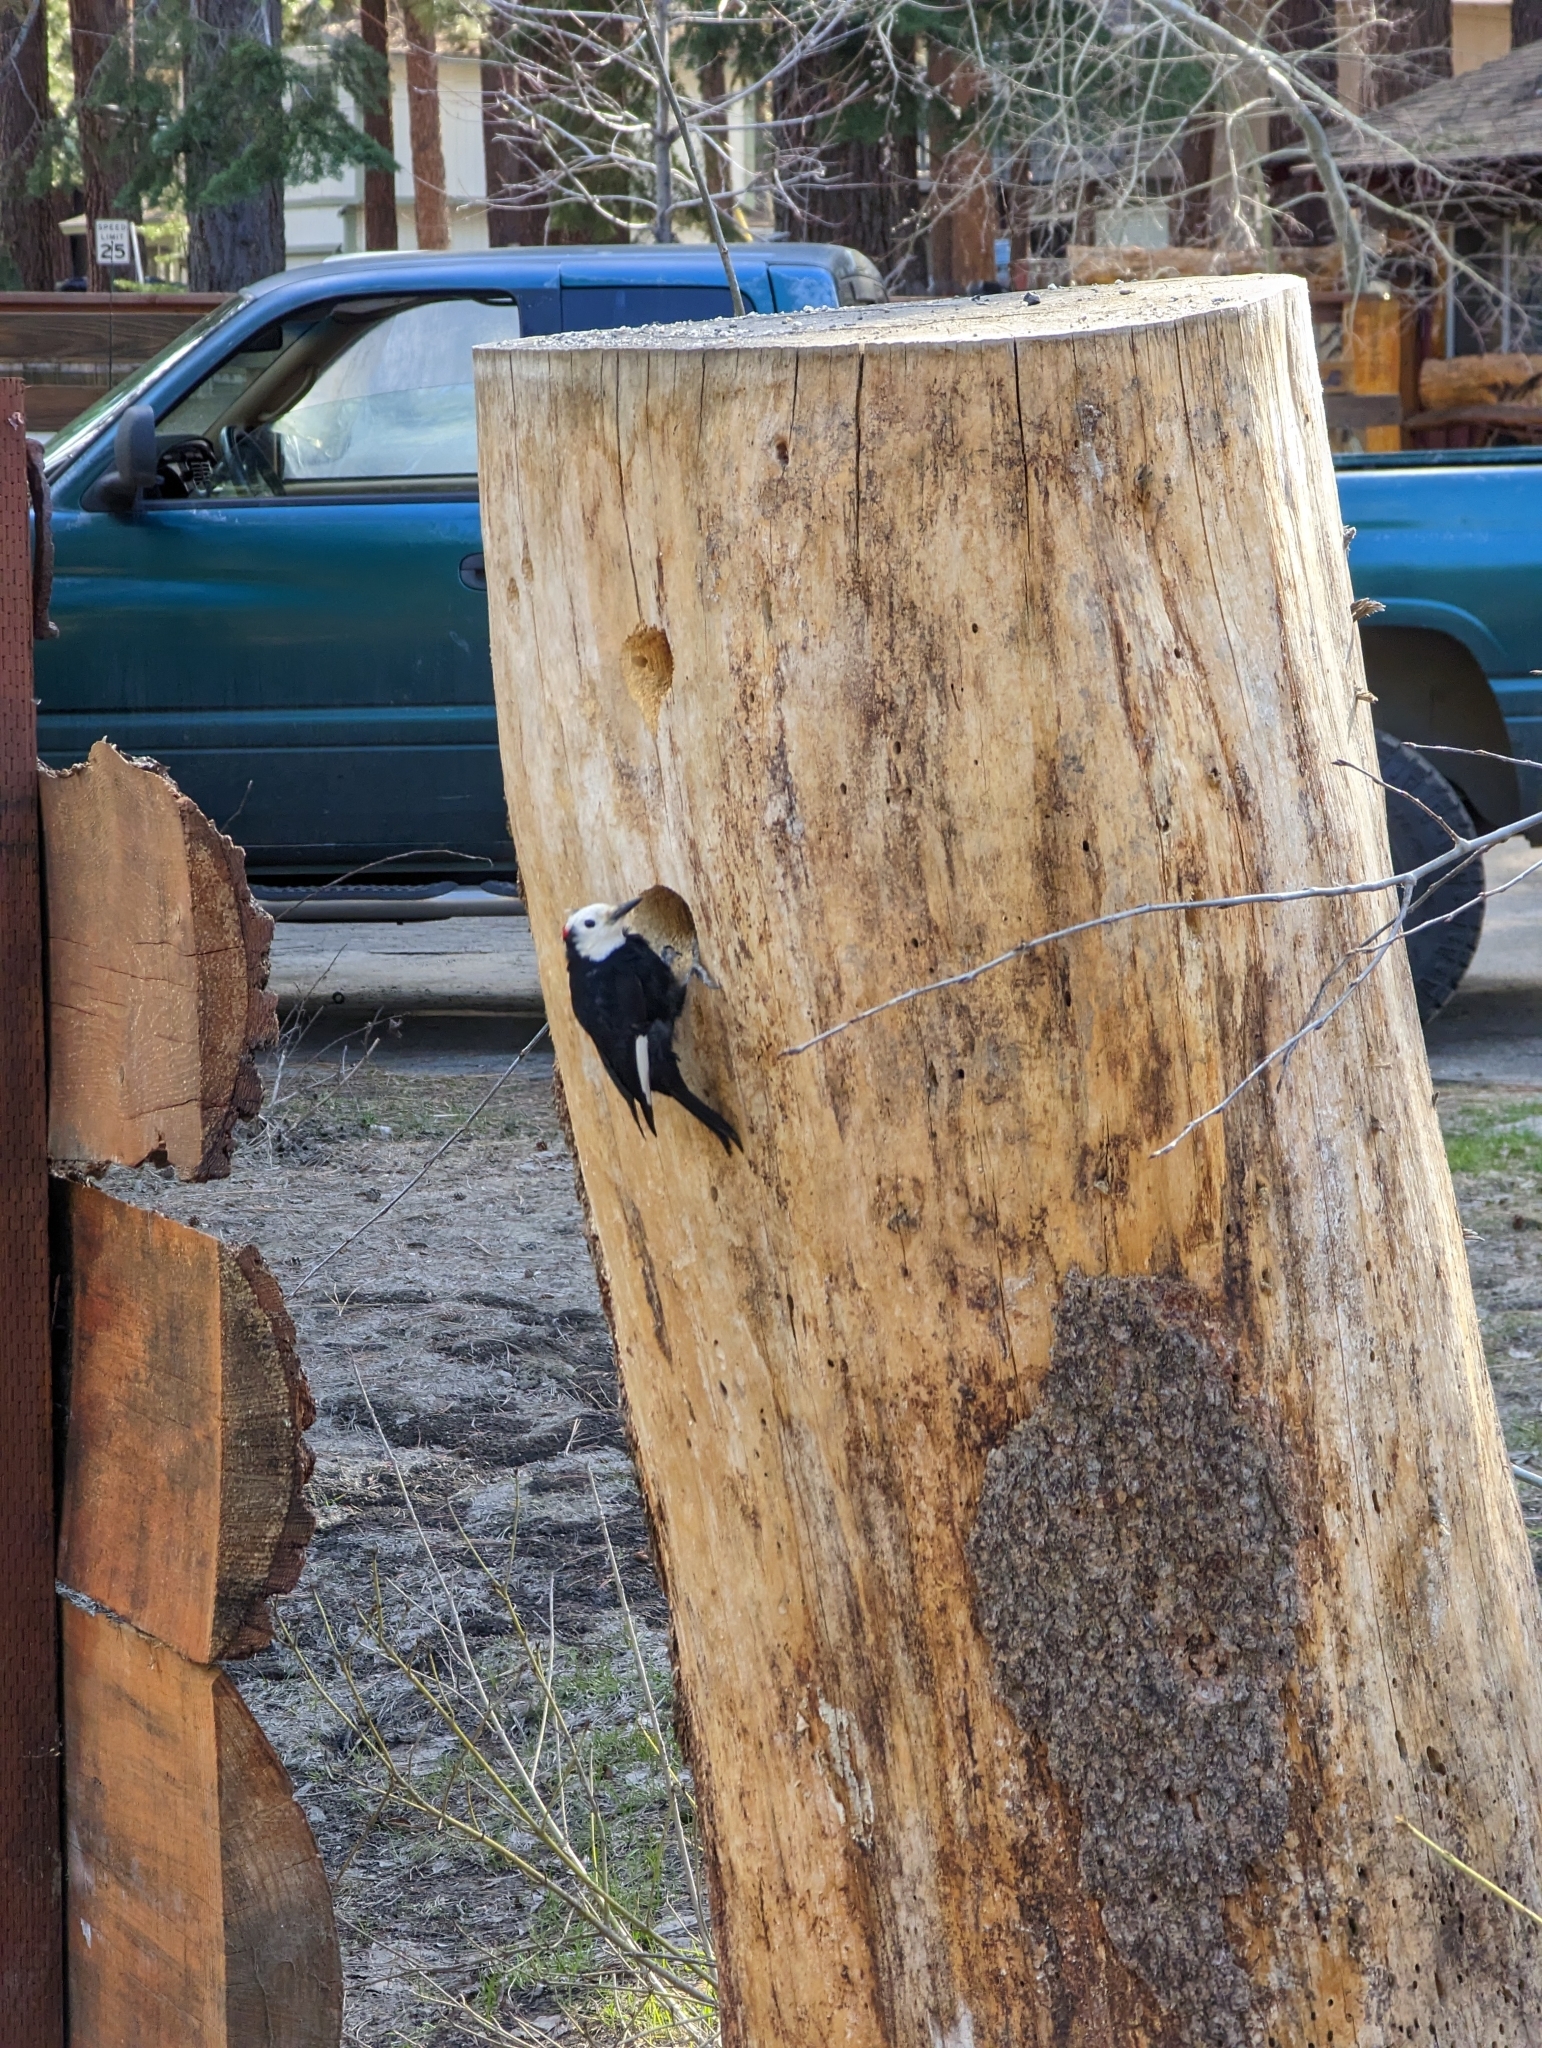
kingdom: Animalia
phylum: Chordata
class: Aves
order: Piciformes
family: Picidae
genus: Leuconotopicus
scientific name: Leuconotopicus albolarvatus
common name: White-headed woodpecker
